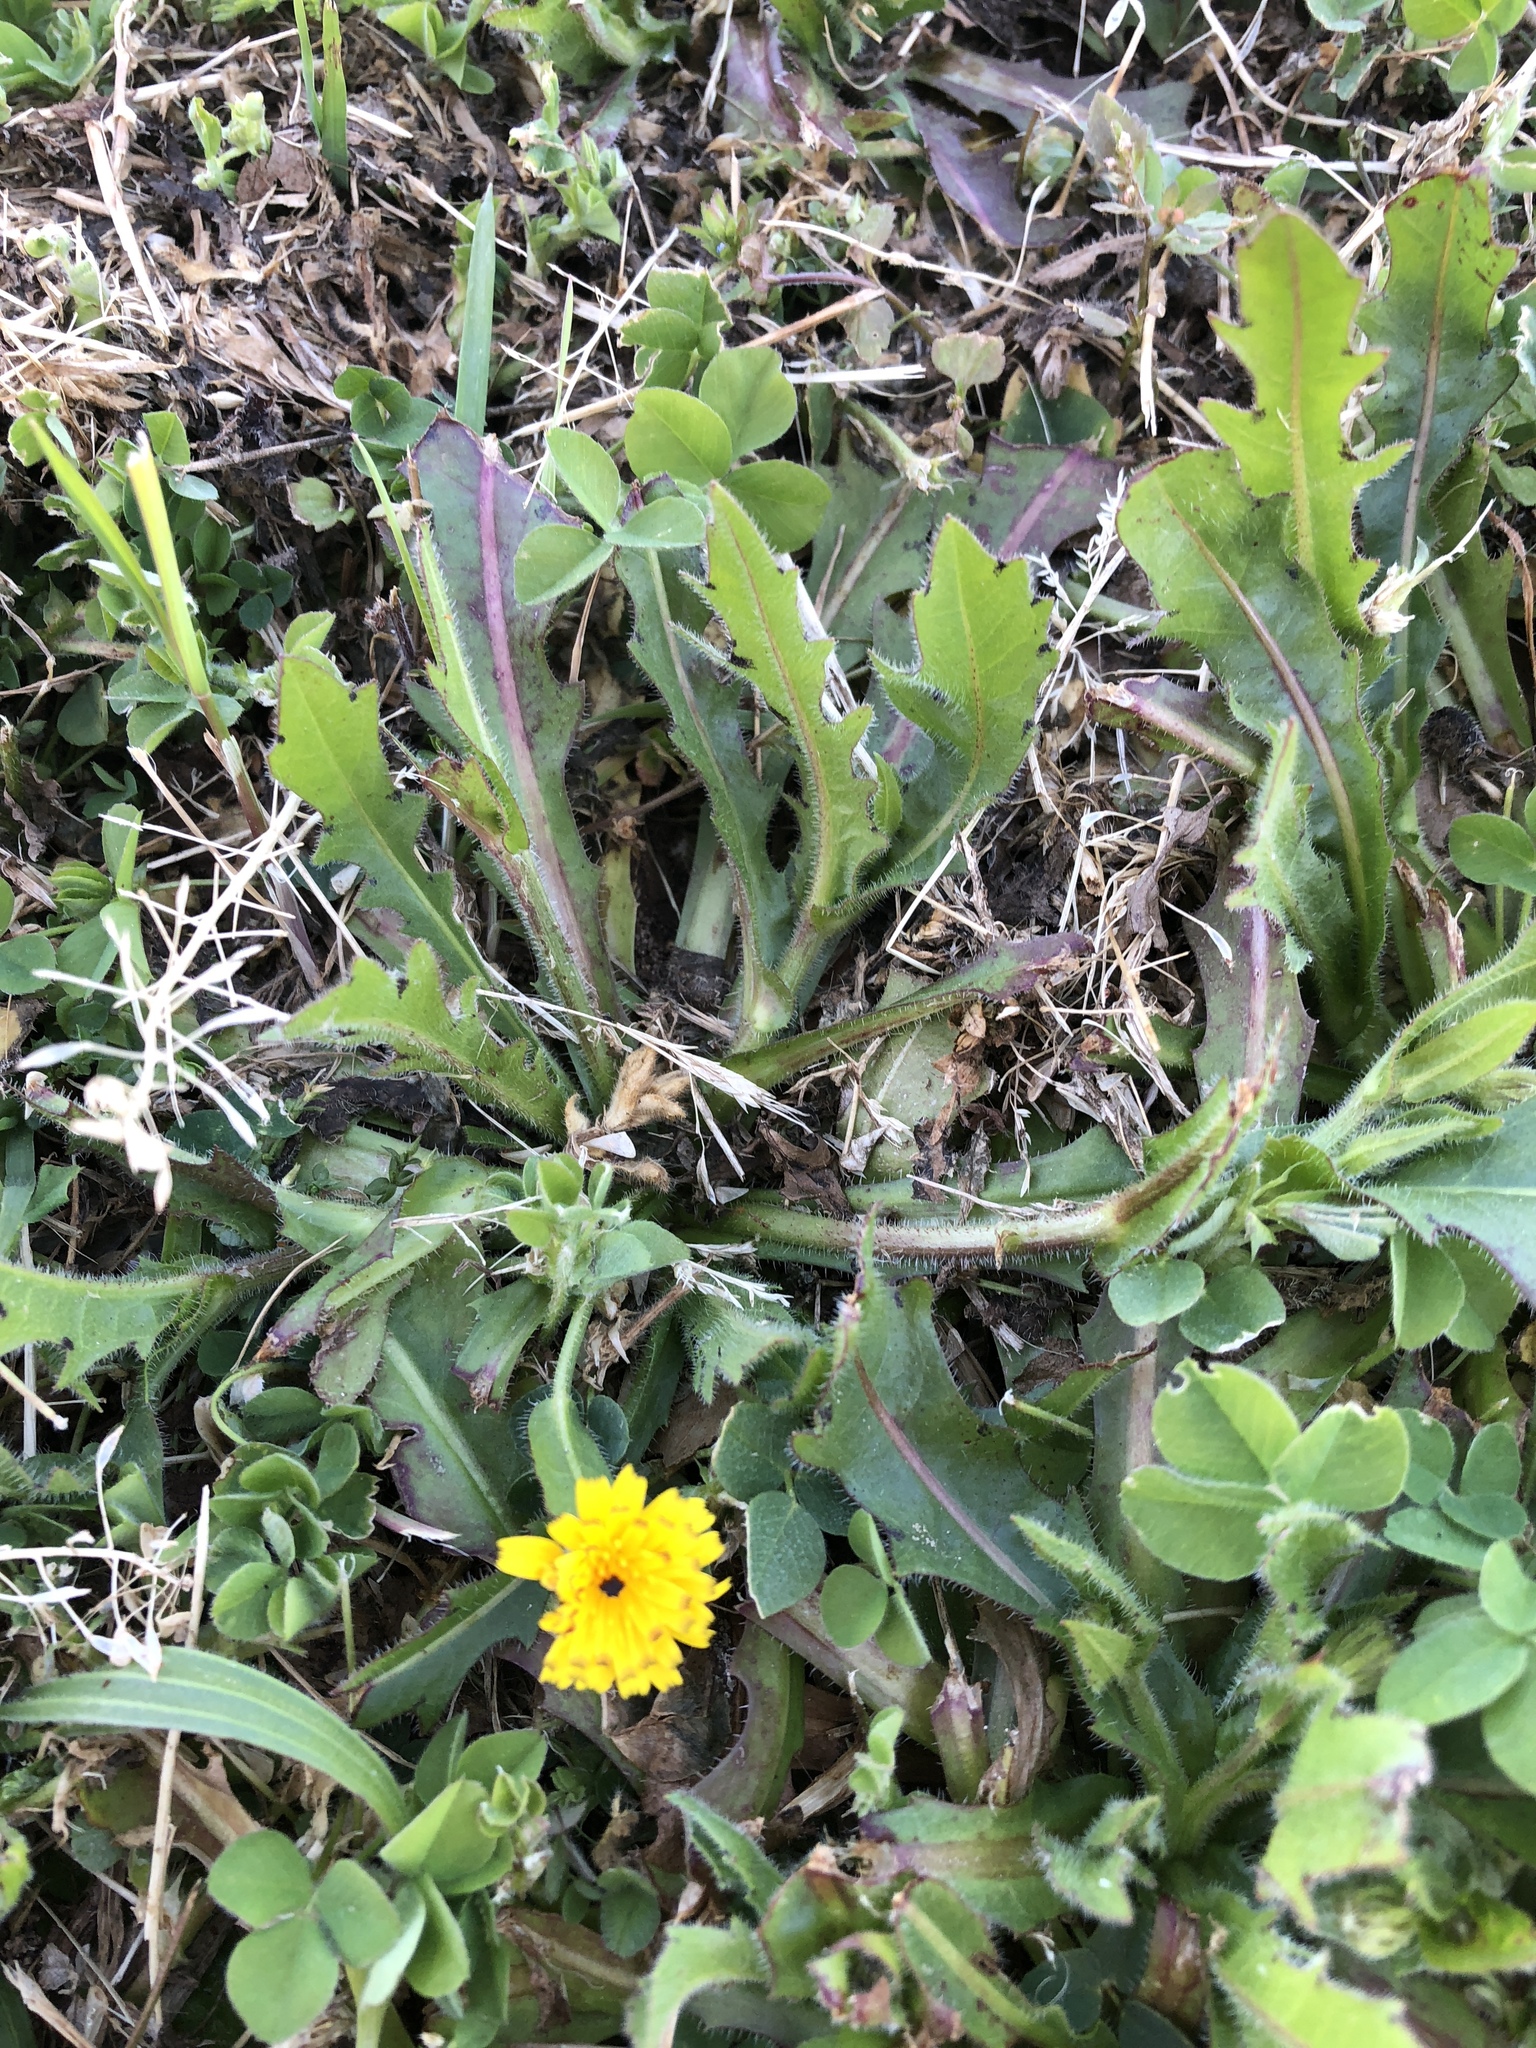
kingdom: Plantae
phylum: Tracheophyta
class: Magnoliopsida
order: Asterales
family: Asteraceae
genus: Hedypnois
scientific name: Hedypnois rhagadioloides
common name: Cretan weed
